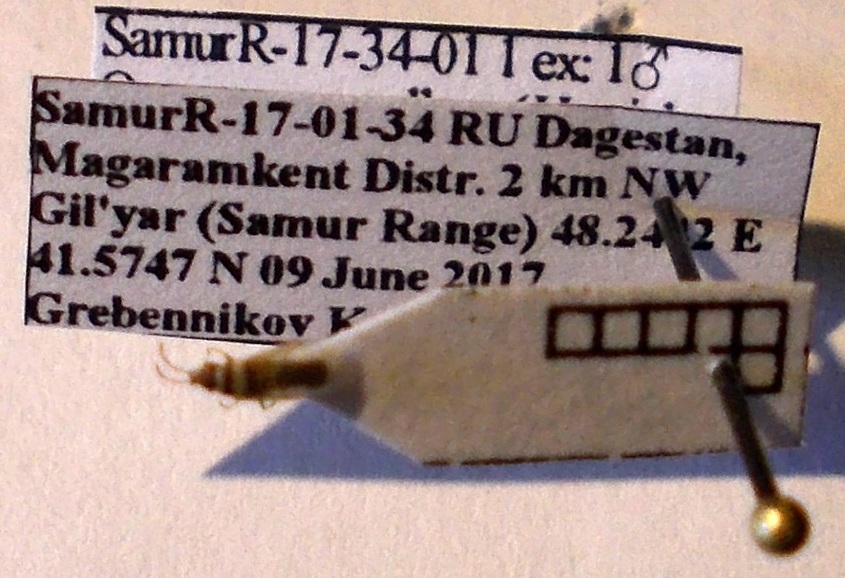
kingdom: Animalia
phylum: Arthropoda
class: Insecta
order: Hemiptera
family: Oxycarenidae
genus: Oxycarenus
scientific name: Oxycarenus pallens
